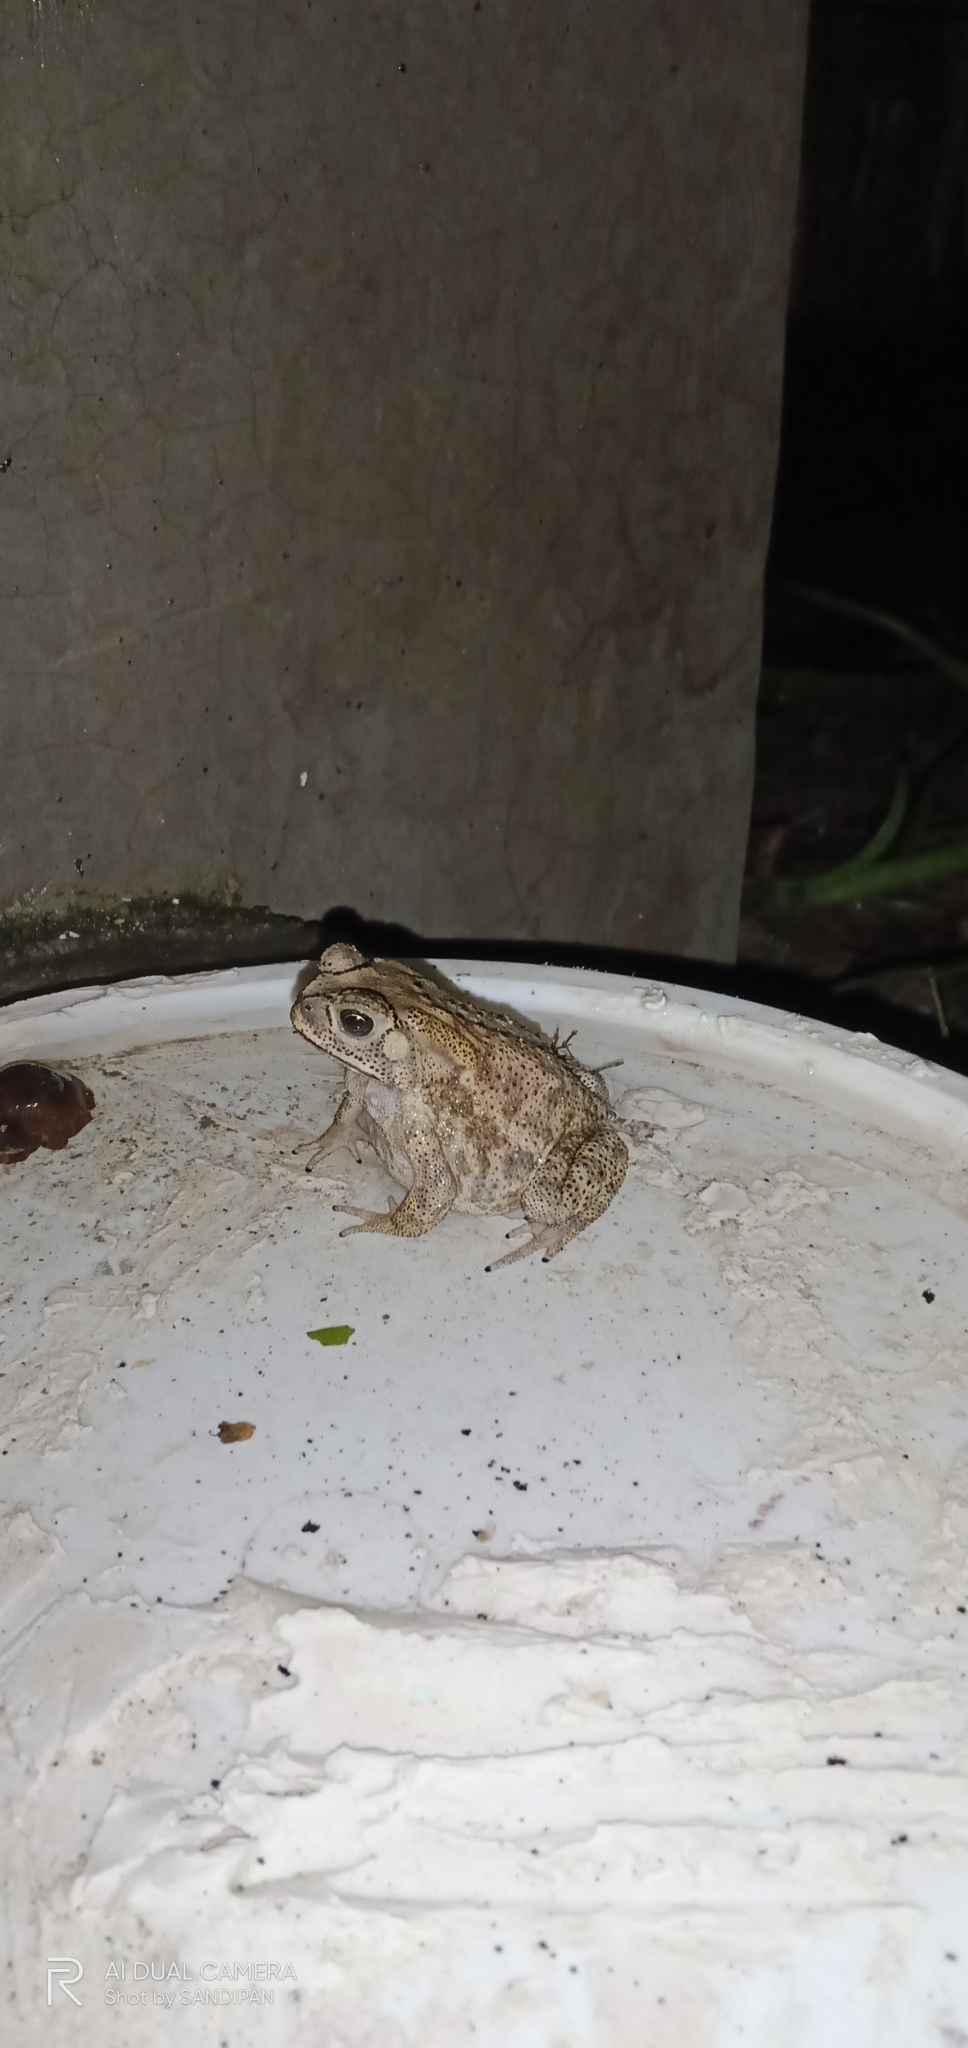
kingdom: Animalia
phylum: Chordata
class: Amphibia
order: Anura
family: Bufonidae
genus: Duttaphrynus
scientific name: Duttaphrynus melanostictus
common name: Common sunda toad
